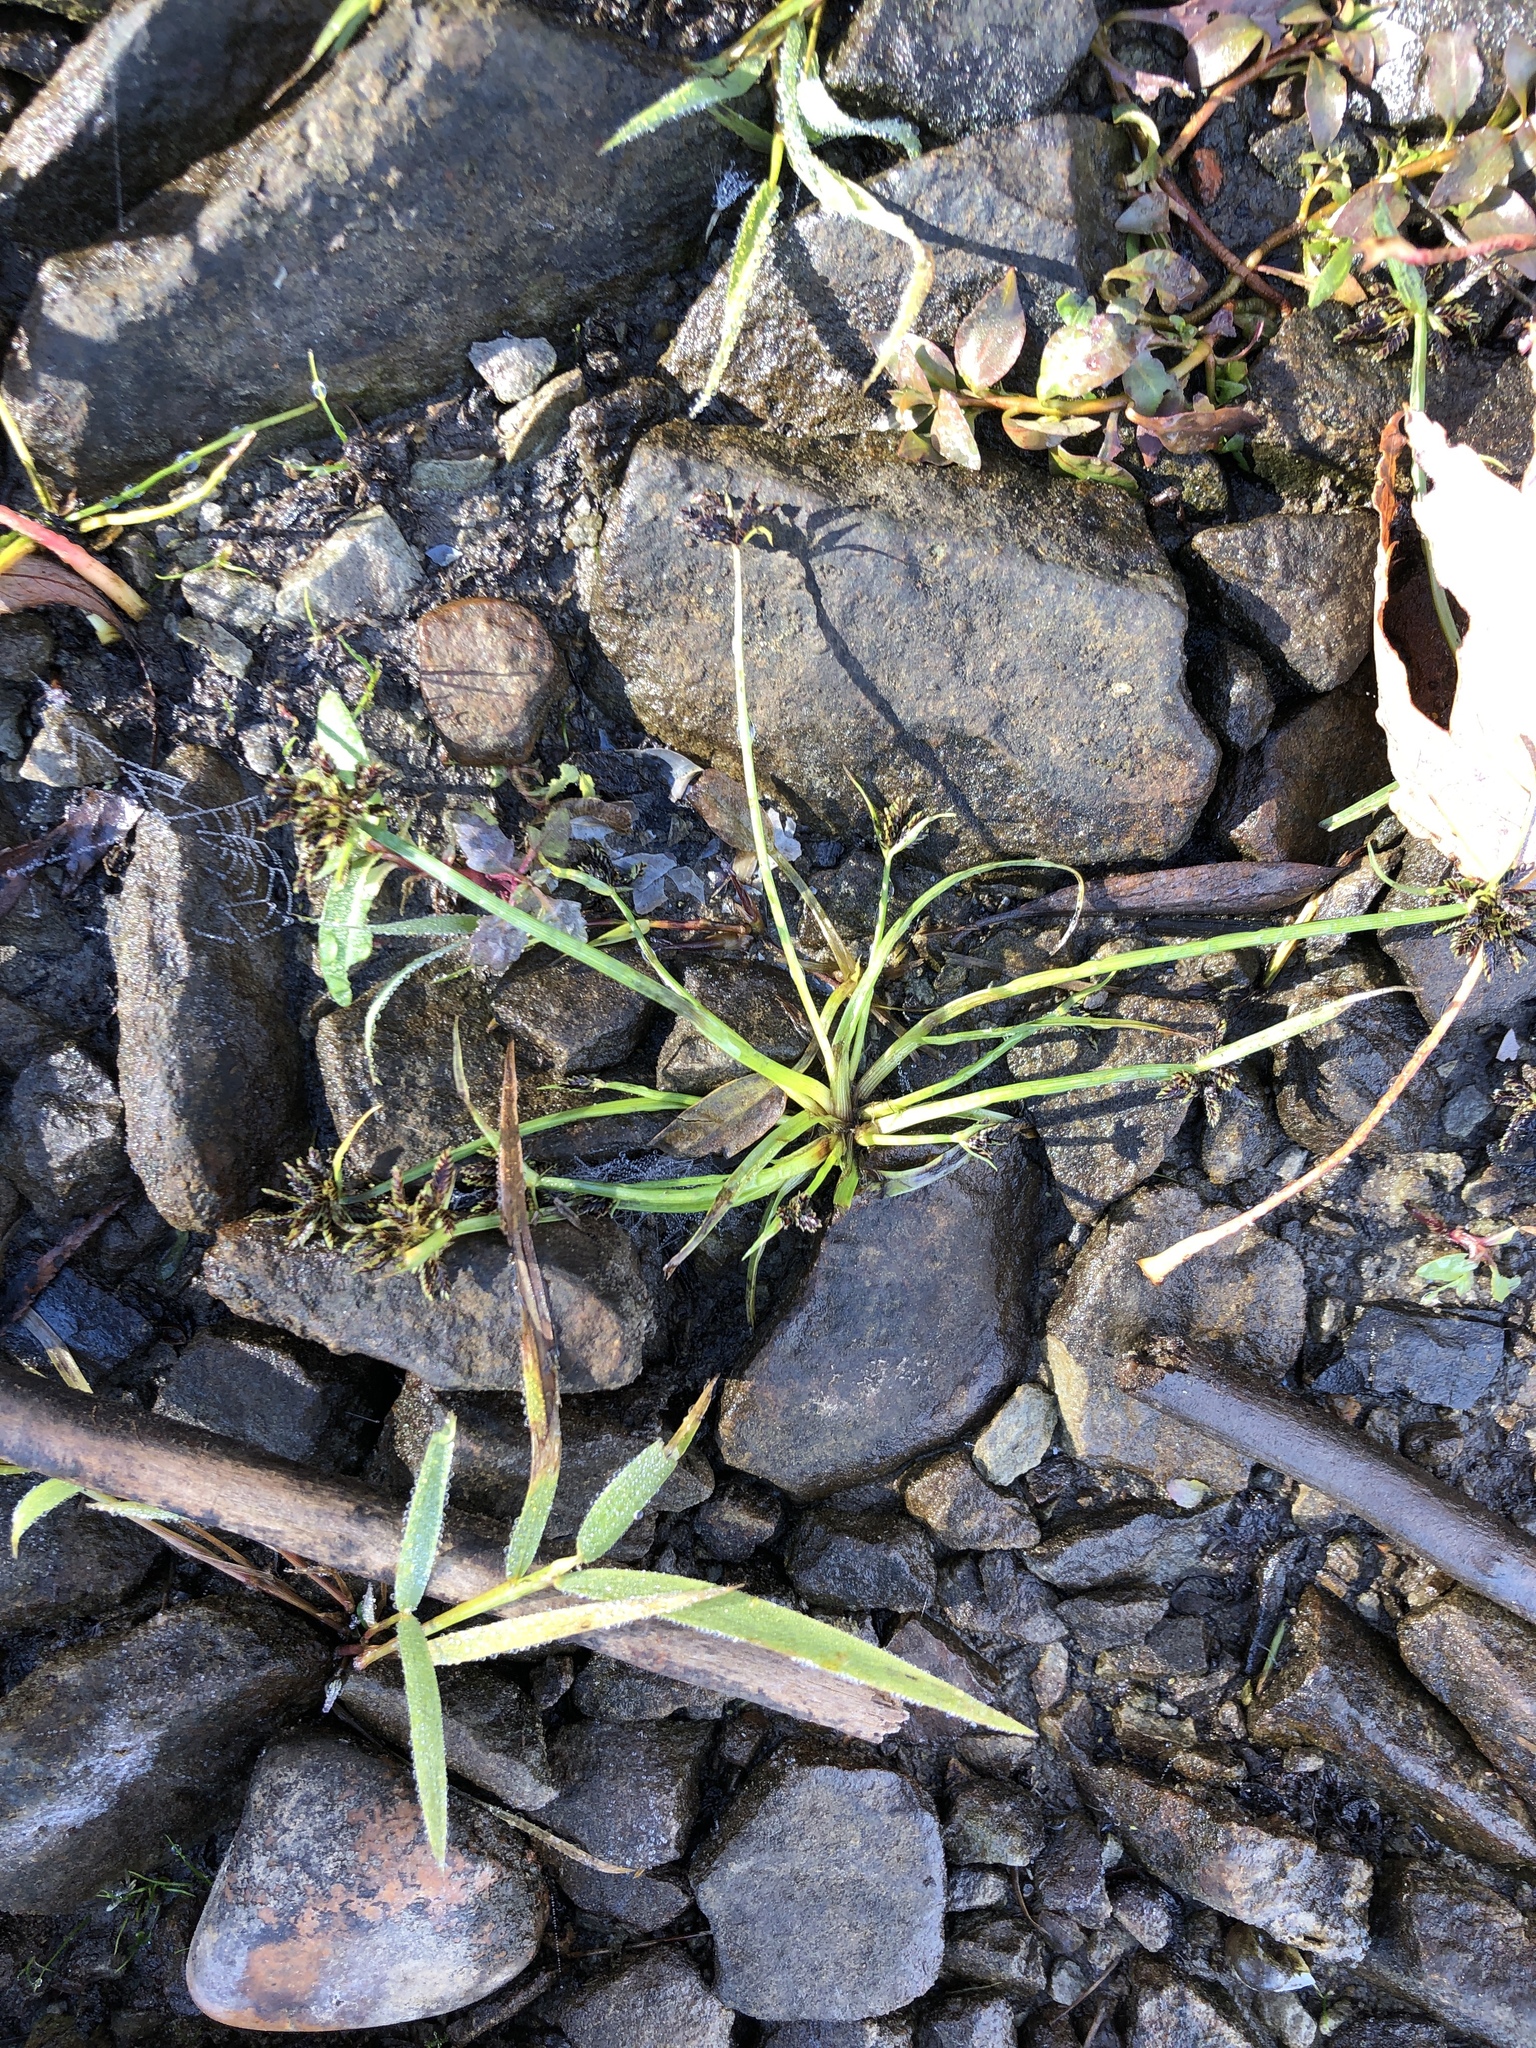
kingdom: Plantae
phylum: Tracheophyta
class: Liliopsida
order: Poales
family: Cyperaceae
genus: Cyperus
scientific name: Cyperus fuscus
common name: Brown galingale
